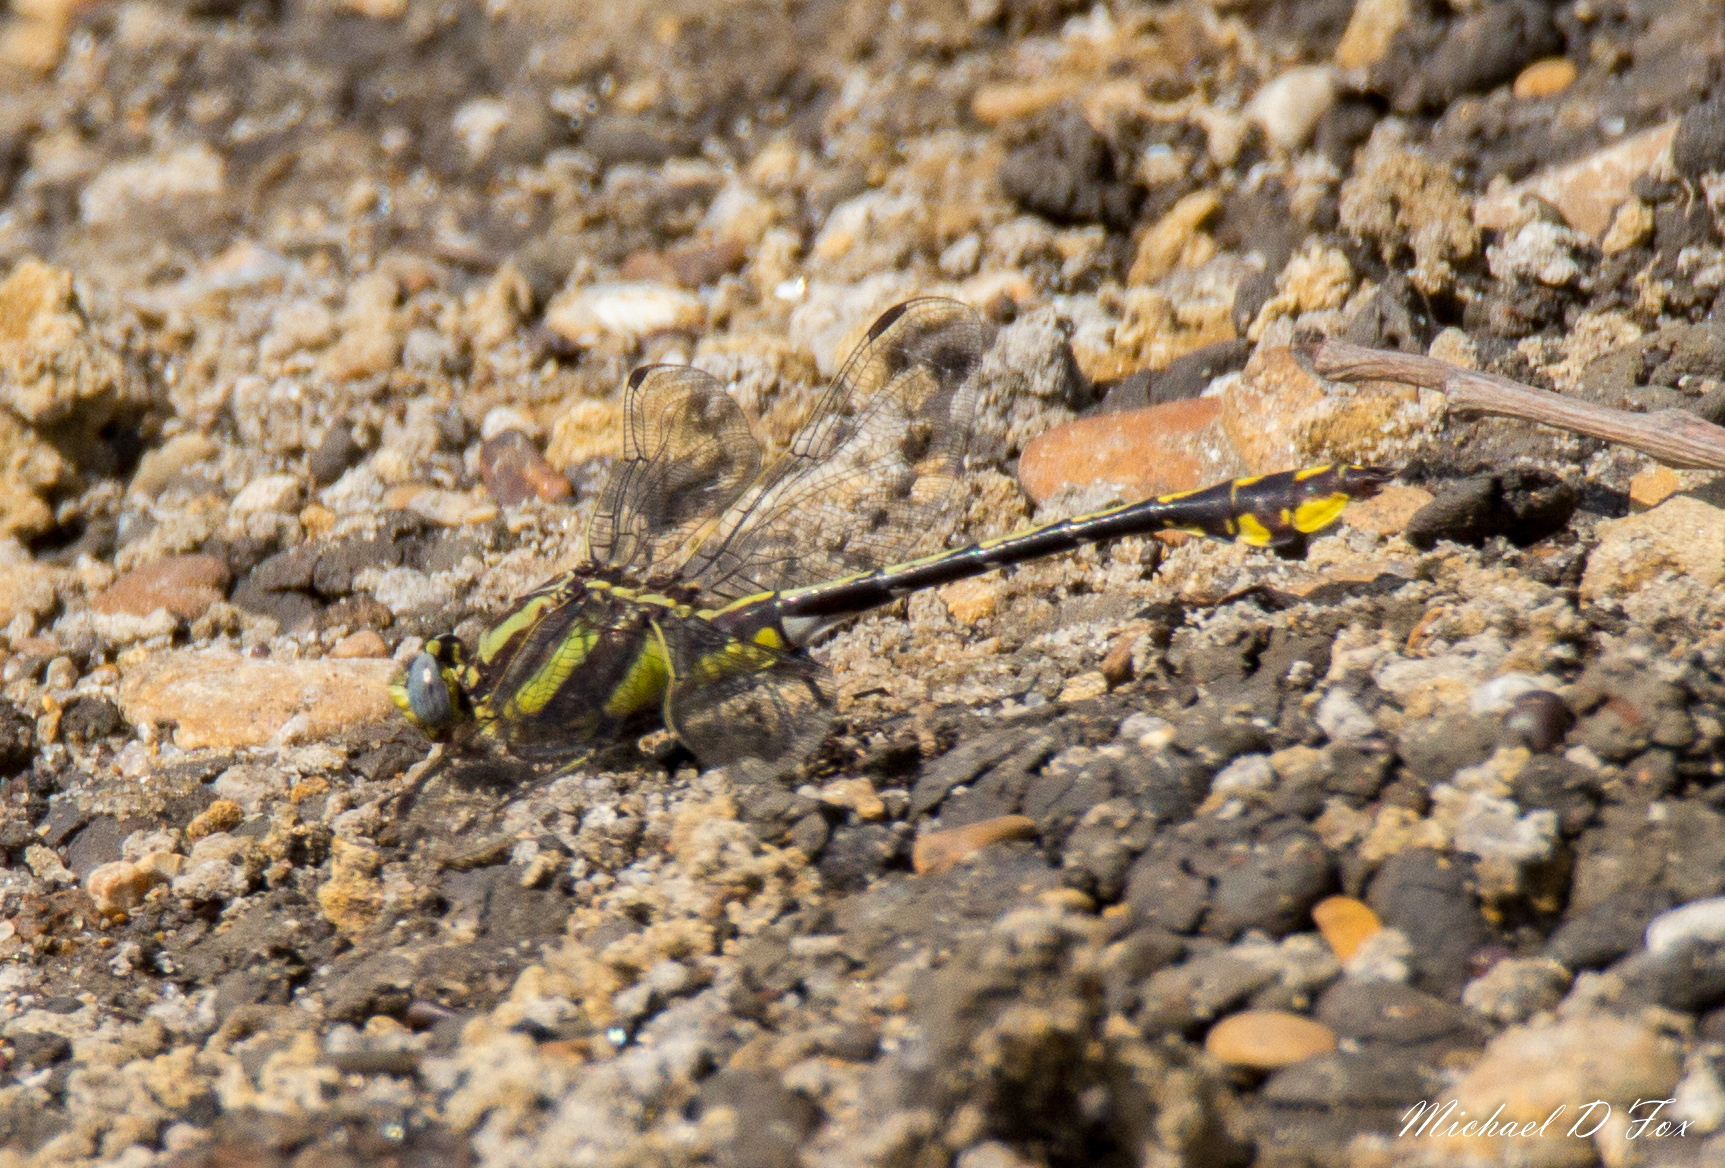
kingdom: Animalia
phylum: Arthropoda
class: Insecta
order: Odonata
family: Gomphidae
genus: Gomphurus
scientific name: Gomphurus externus
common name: Plains clubtail
